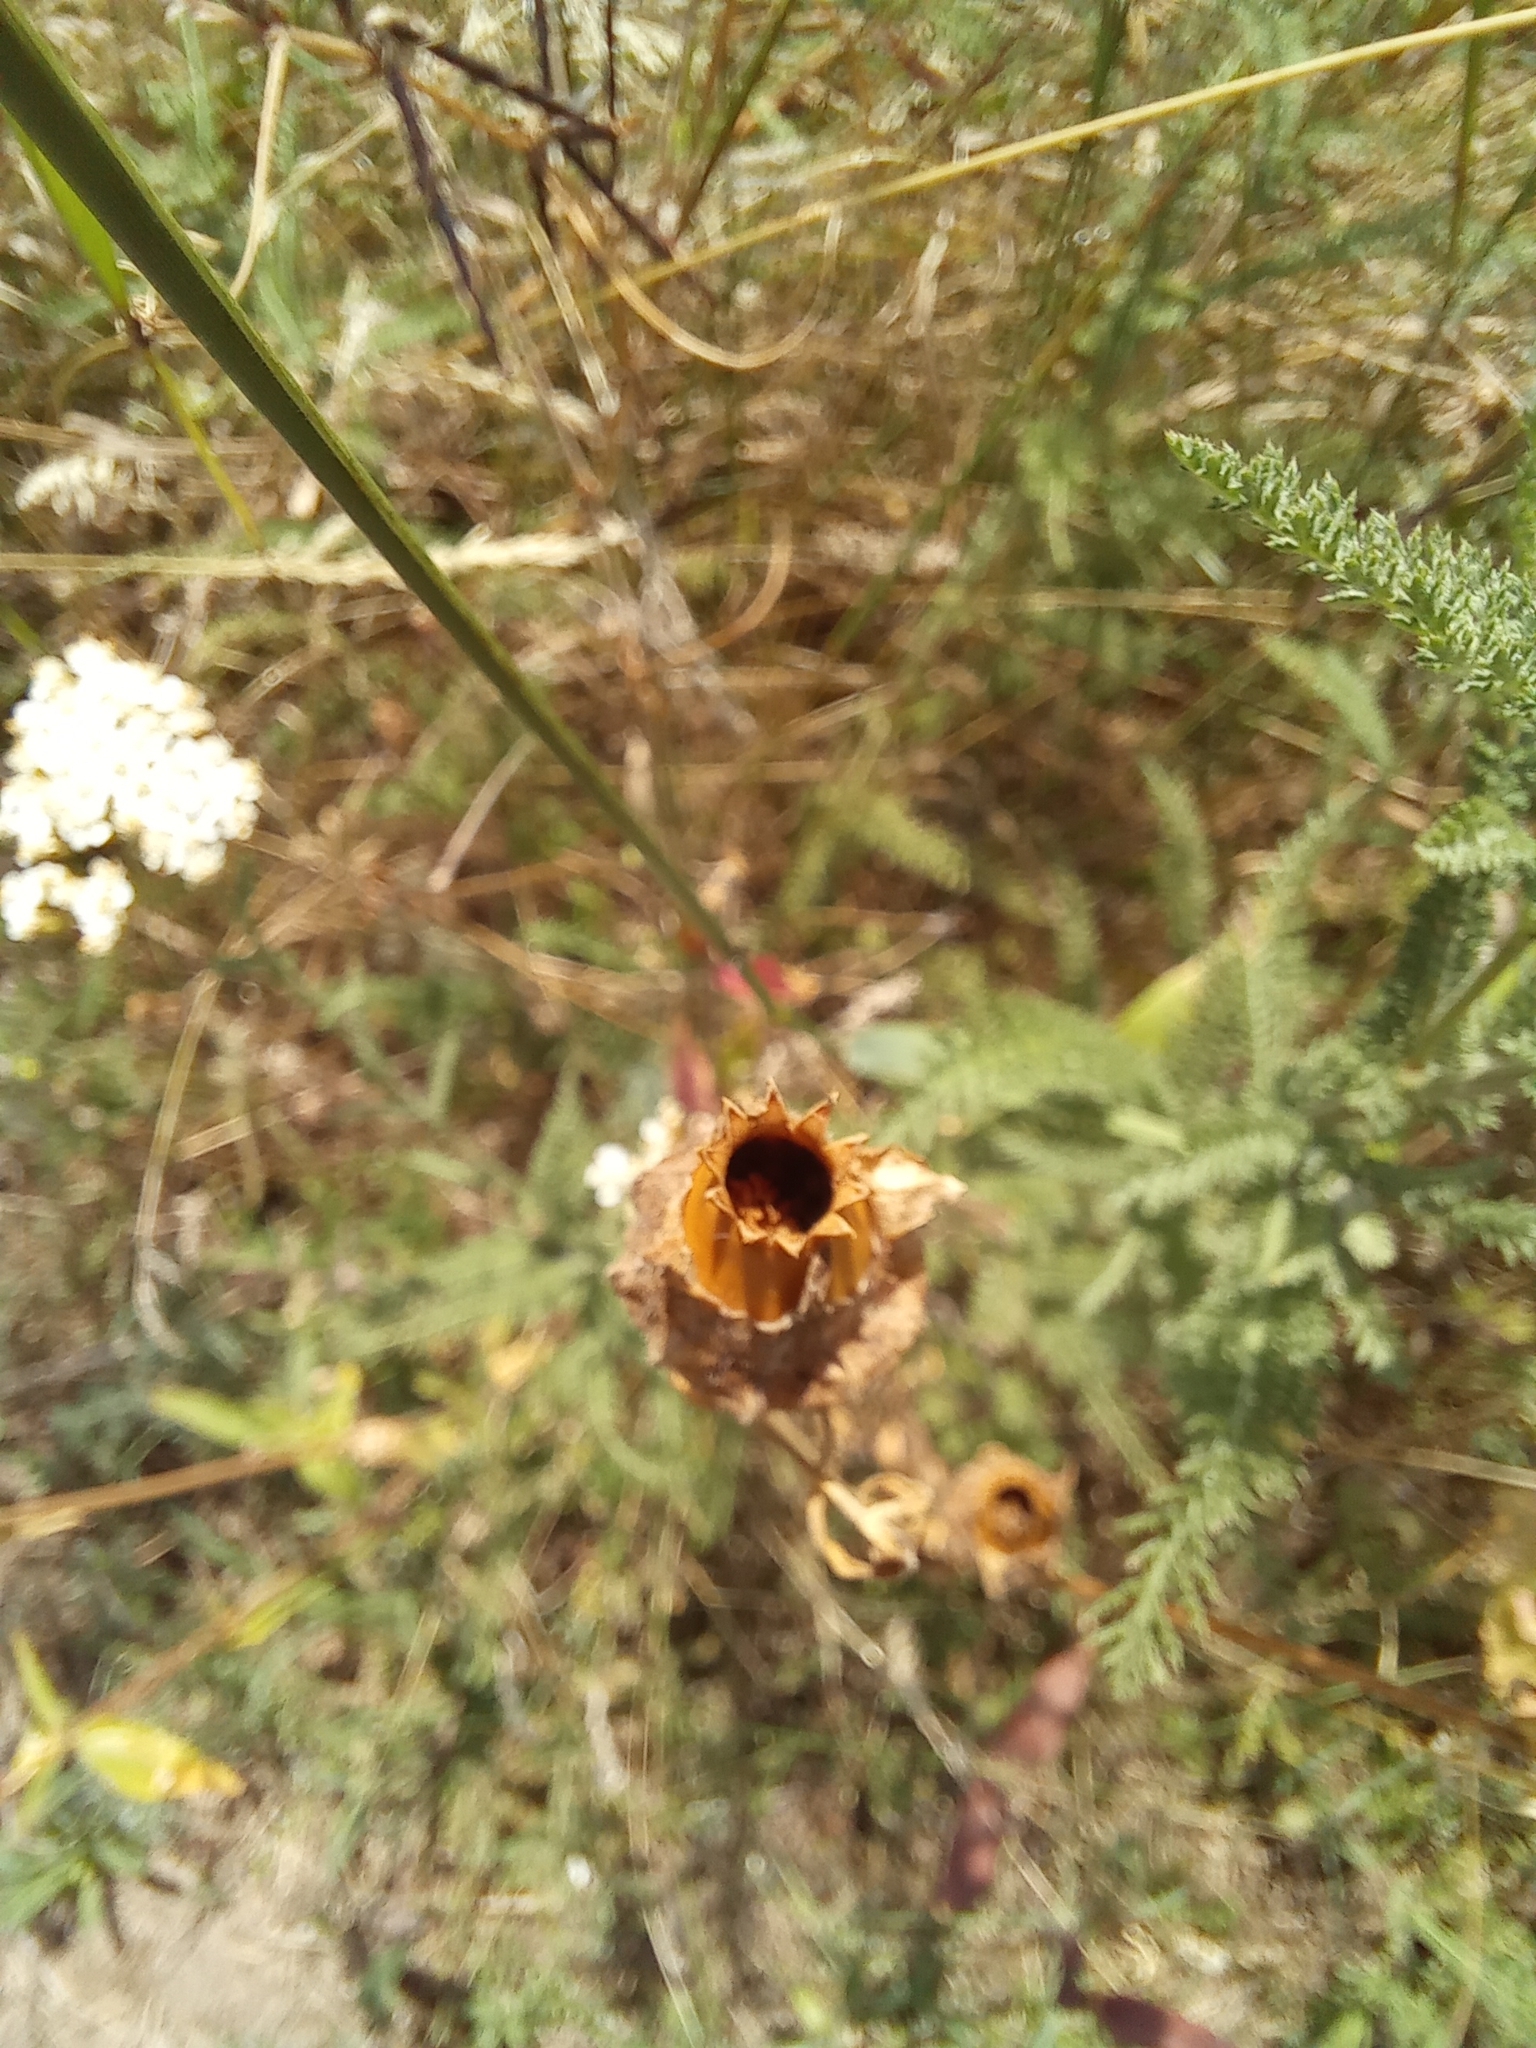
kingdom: Plantae
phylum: Tracheophyta
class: Magnoliopsida
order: Caryophyllales
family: Caryophyllaceae
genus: Silene
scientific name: Silene latifolia
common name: White campion
